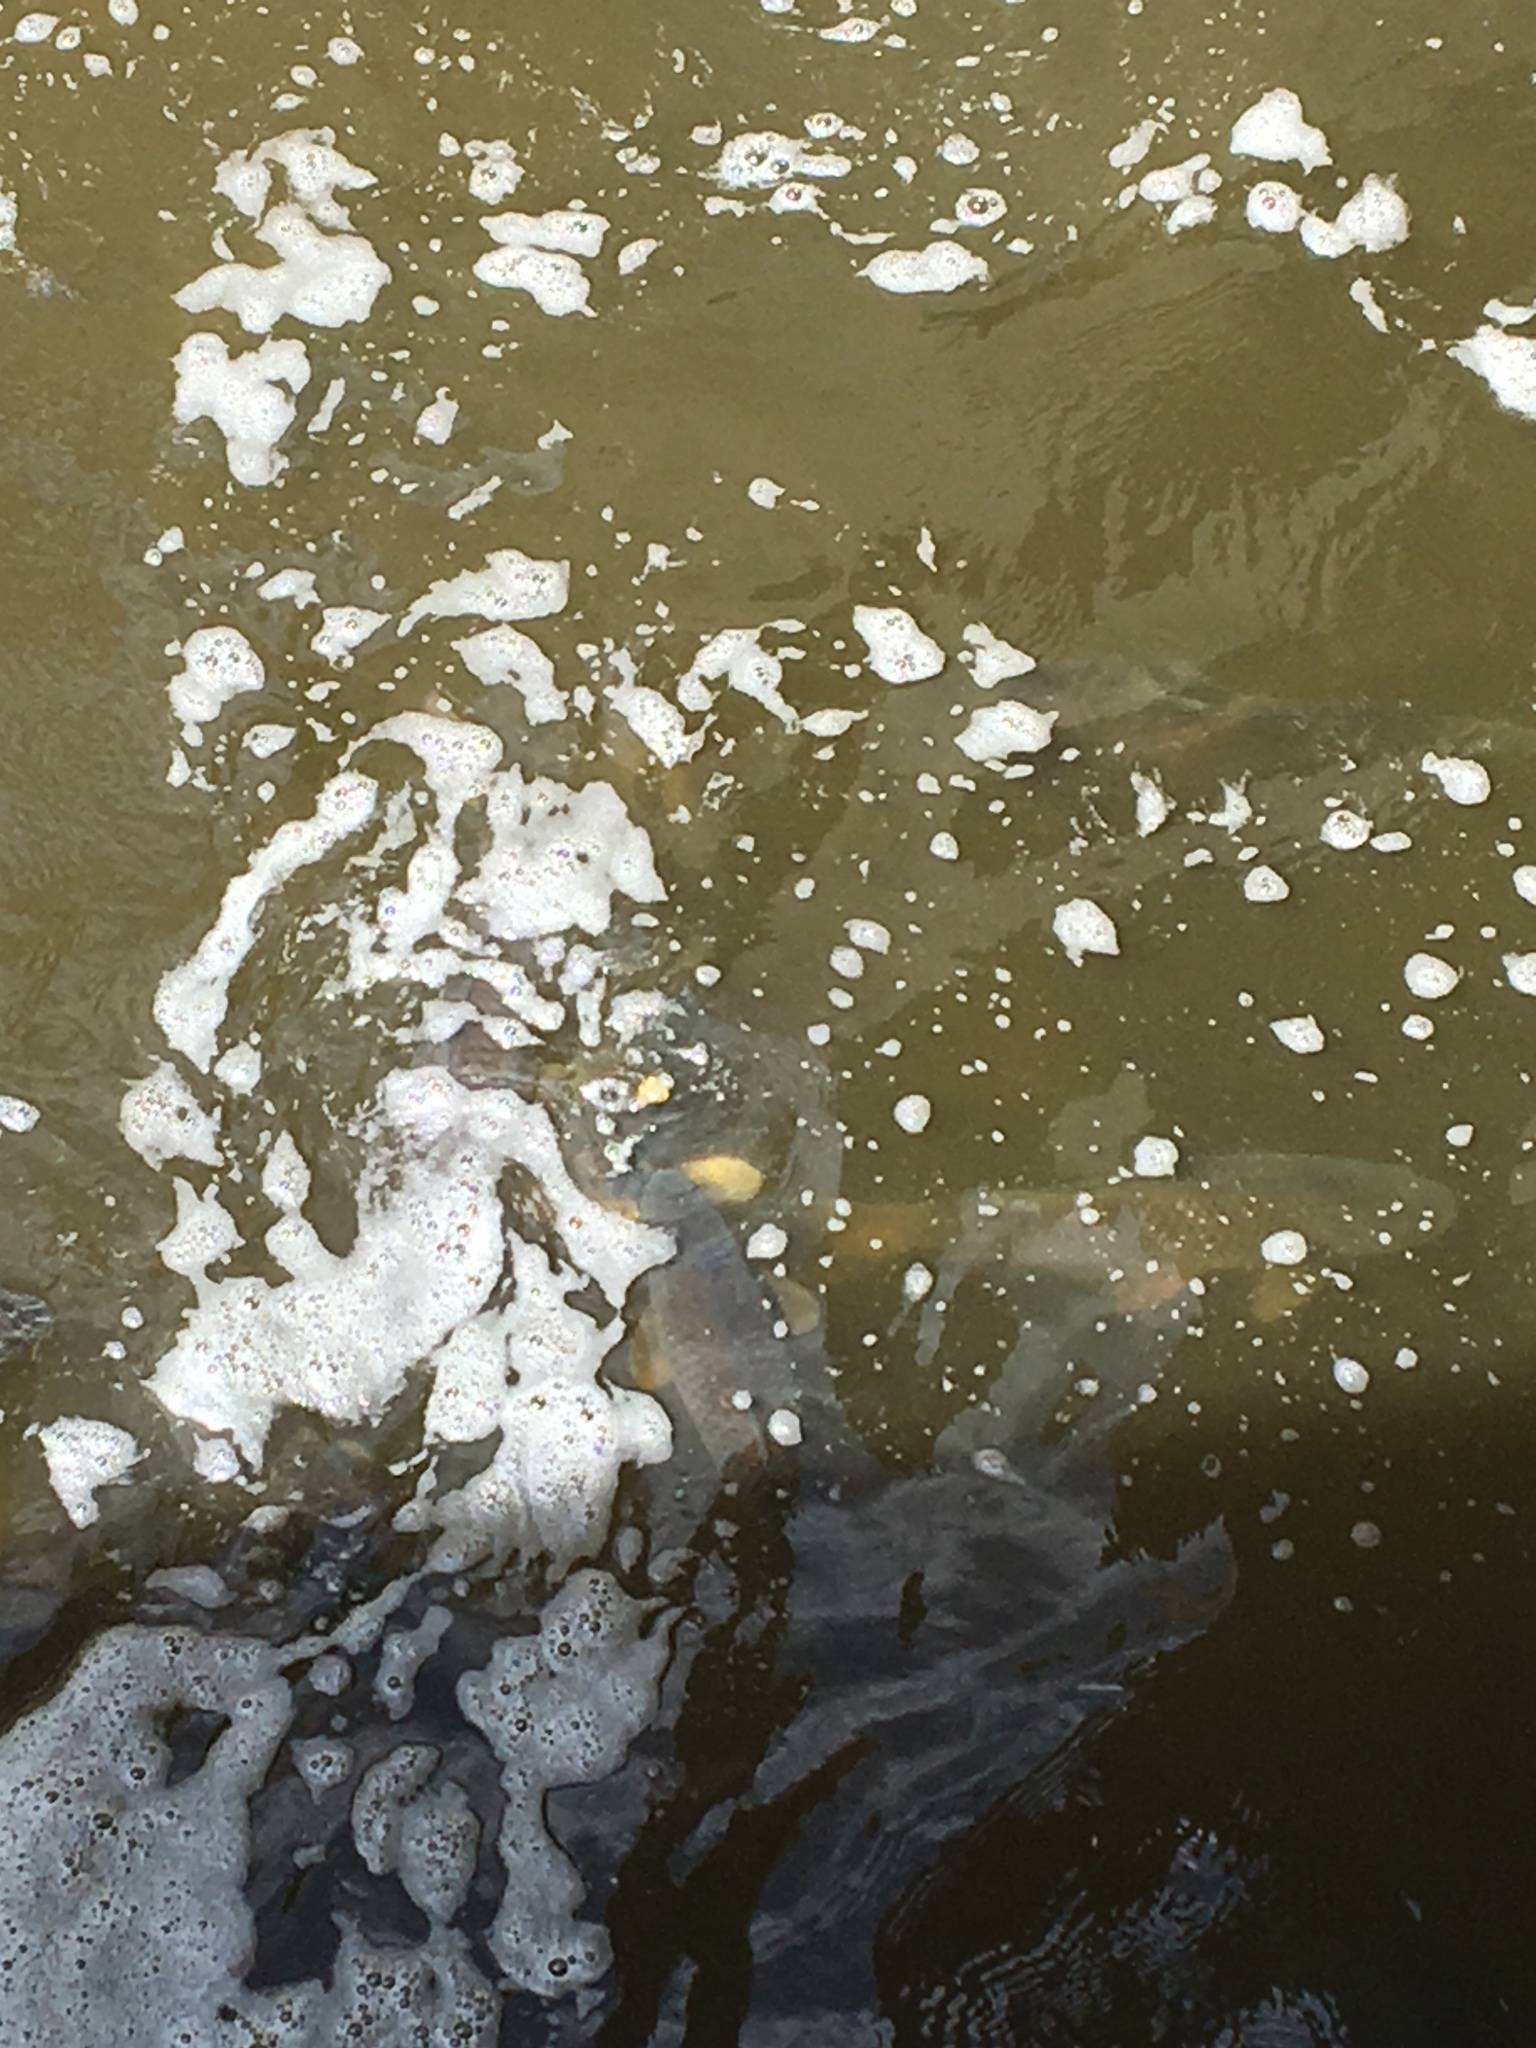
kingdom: Animalia
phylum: Chordata
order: Cypriniformes
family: Cyprinidae
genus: Cyprinus
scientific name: Cyprinus carpio
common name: Common carp
